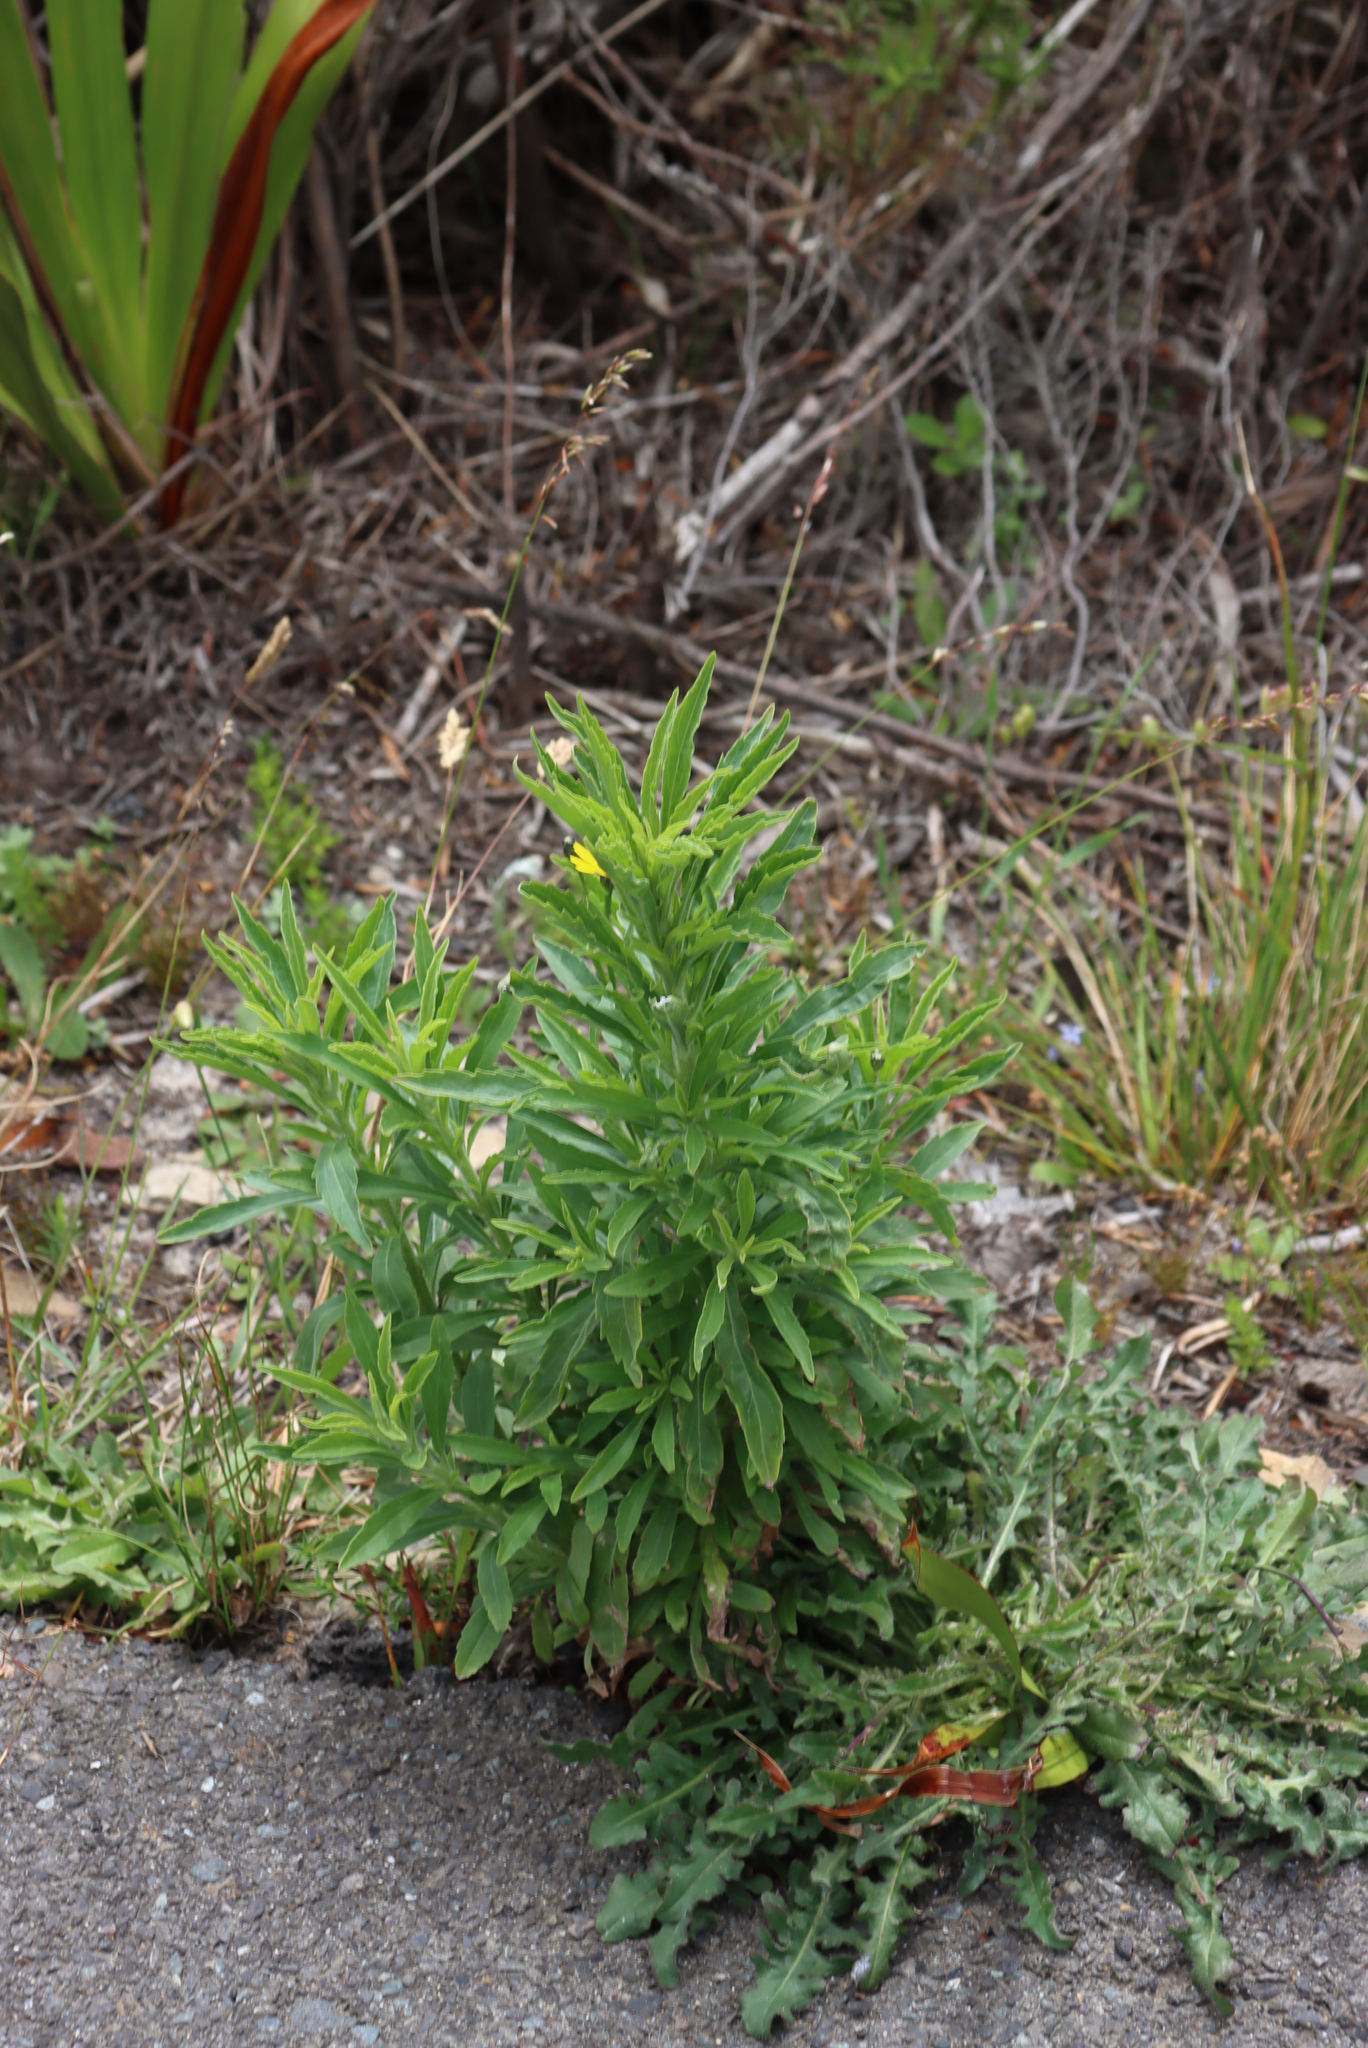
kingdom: Plantae
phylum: Tracheophyta
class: Magnoliopsida
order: Asterales
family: Asteraceae
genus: Erigeron
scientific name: Erigeron sumatrensis
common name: Daisy
